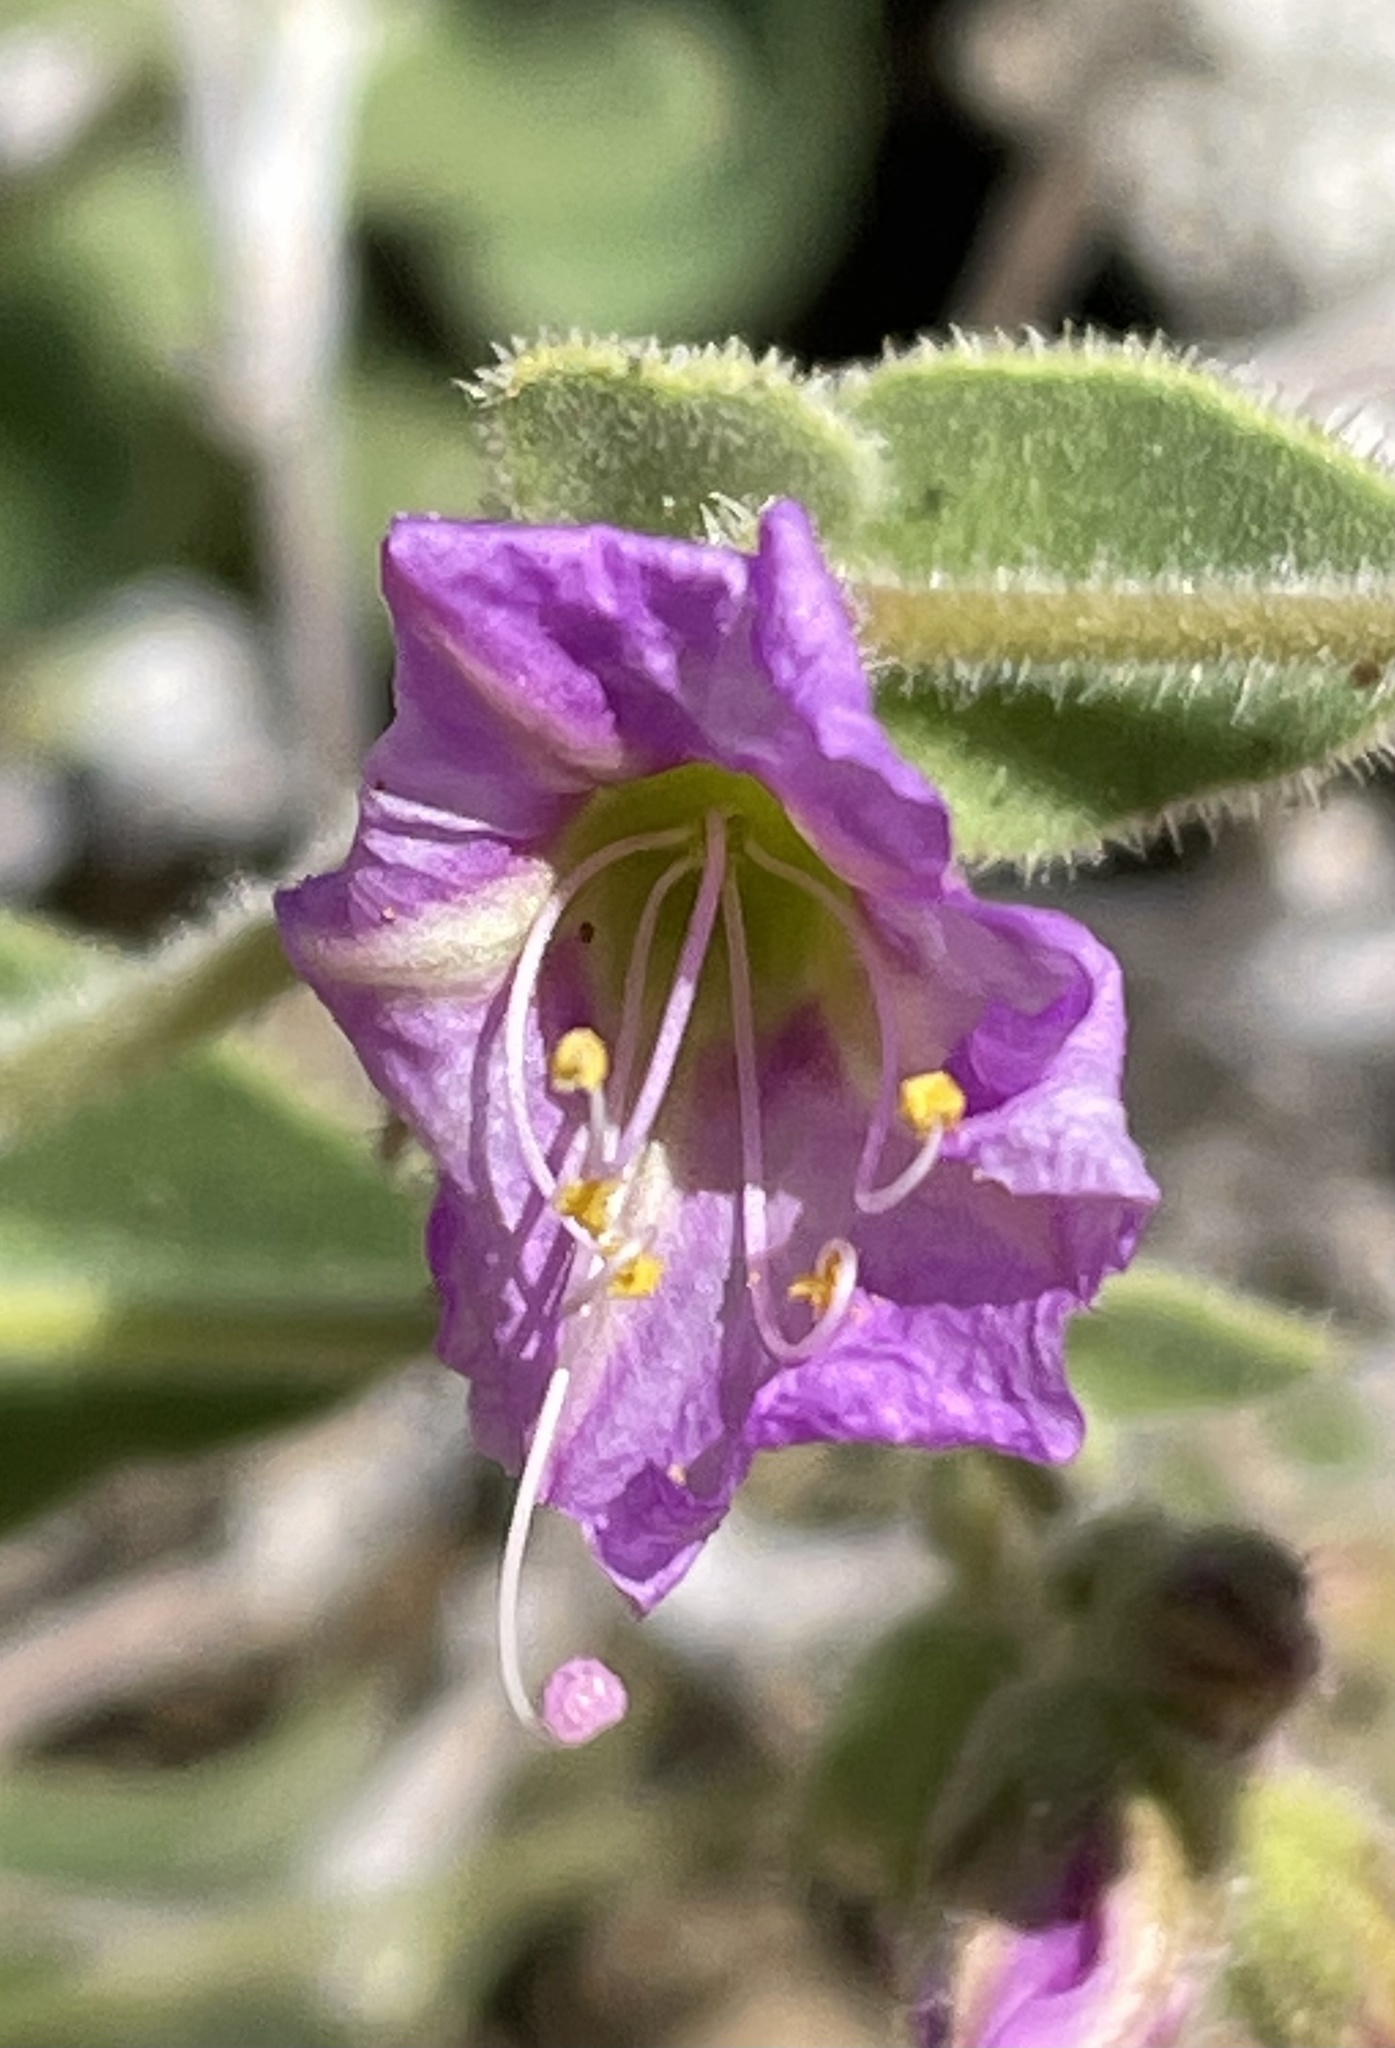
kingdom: Plantae
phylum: Tracheophyta
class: Magnoliopsida
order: Caryophyllales
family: Nyctaginaceae
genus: Mirabilis
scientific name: Mirabilis laevis
